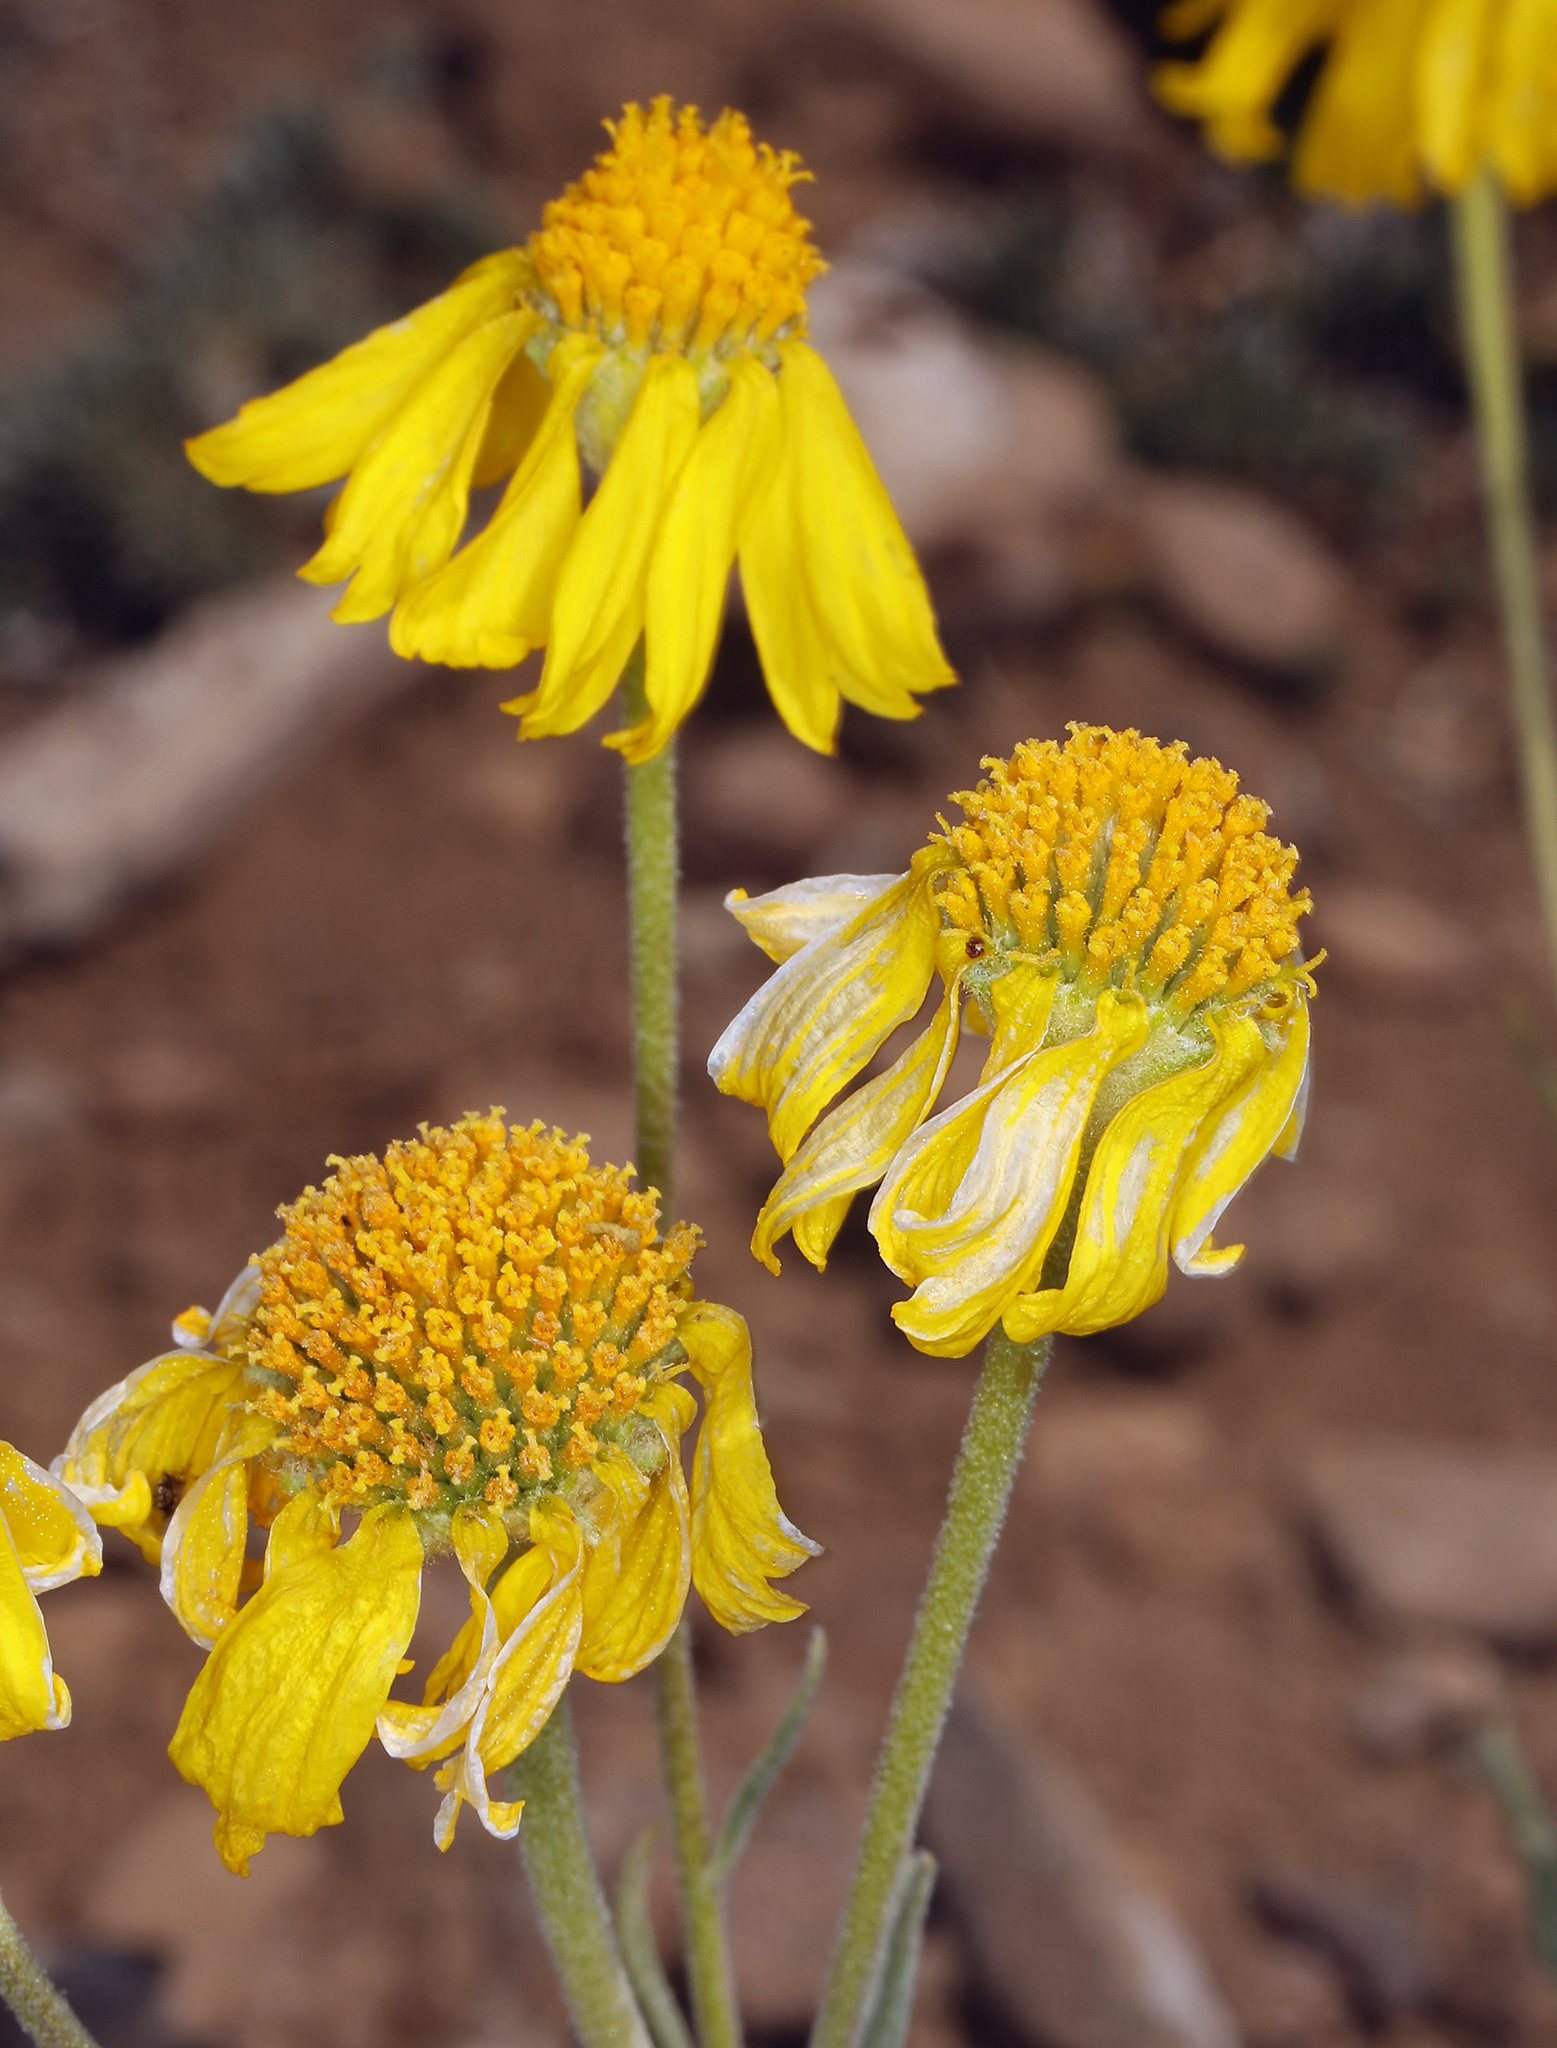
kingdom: Plantae
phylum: Tracheophyta
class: Magnoliopsida
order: Asterales
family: Asteraceae
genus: Hymenoxys
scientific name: Hymenoxys cooperi
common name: Cooper's bitterweed
